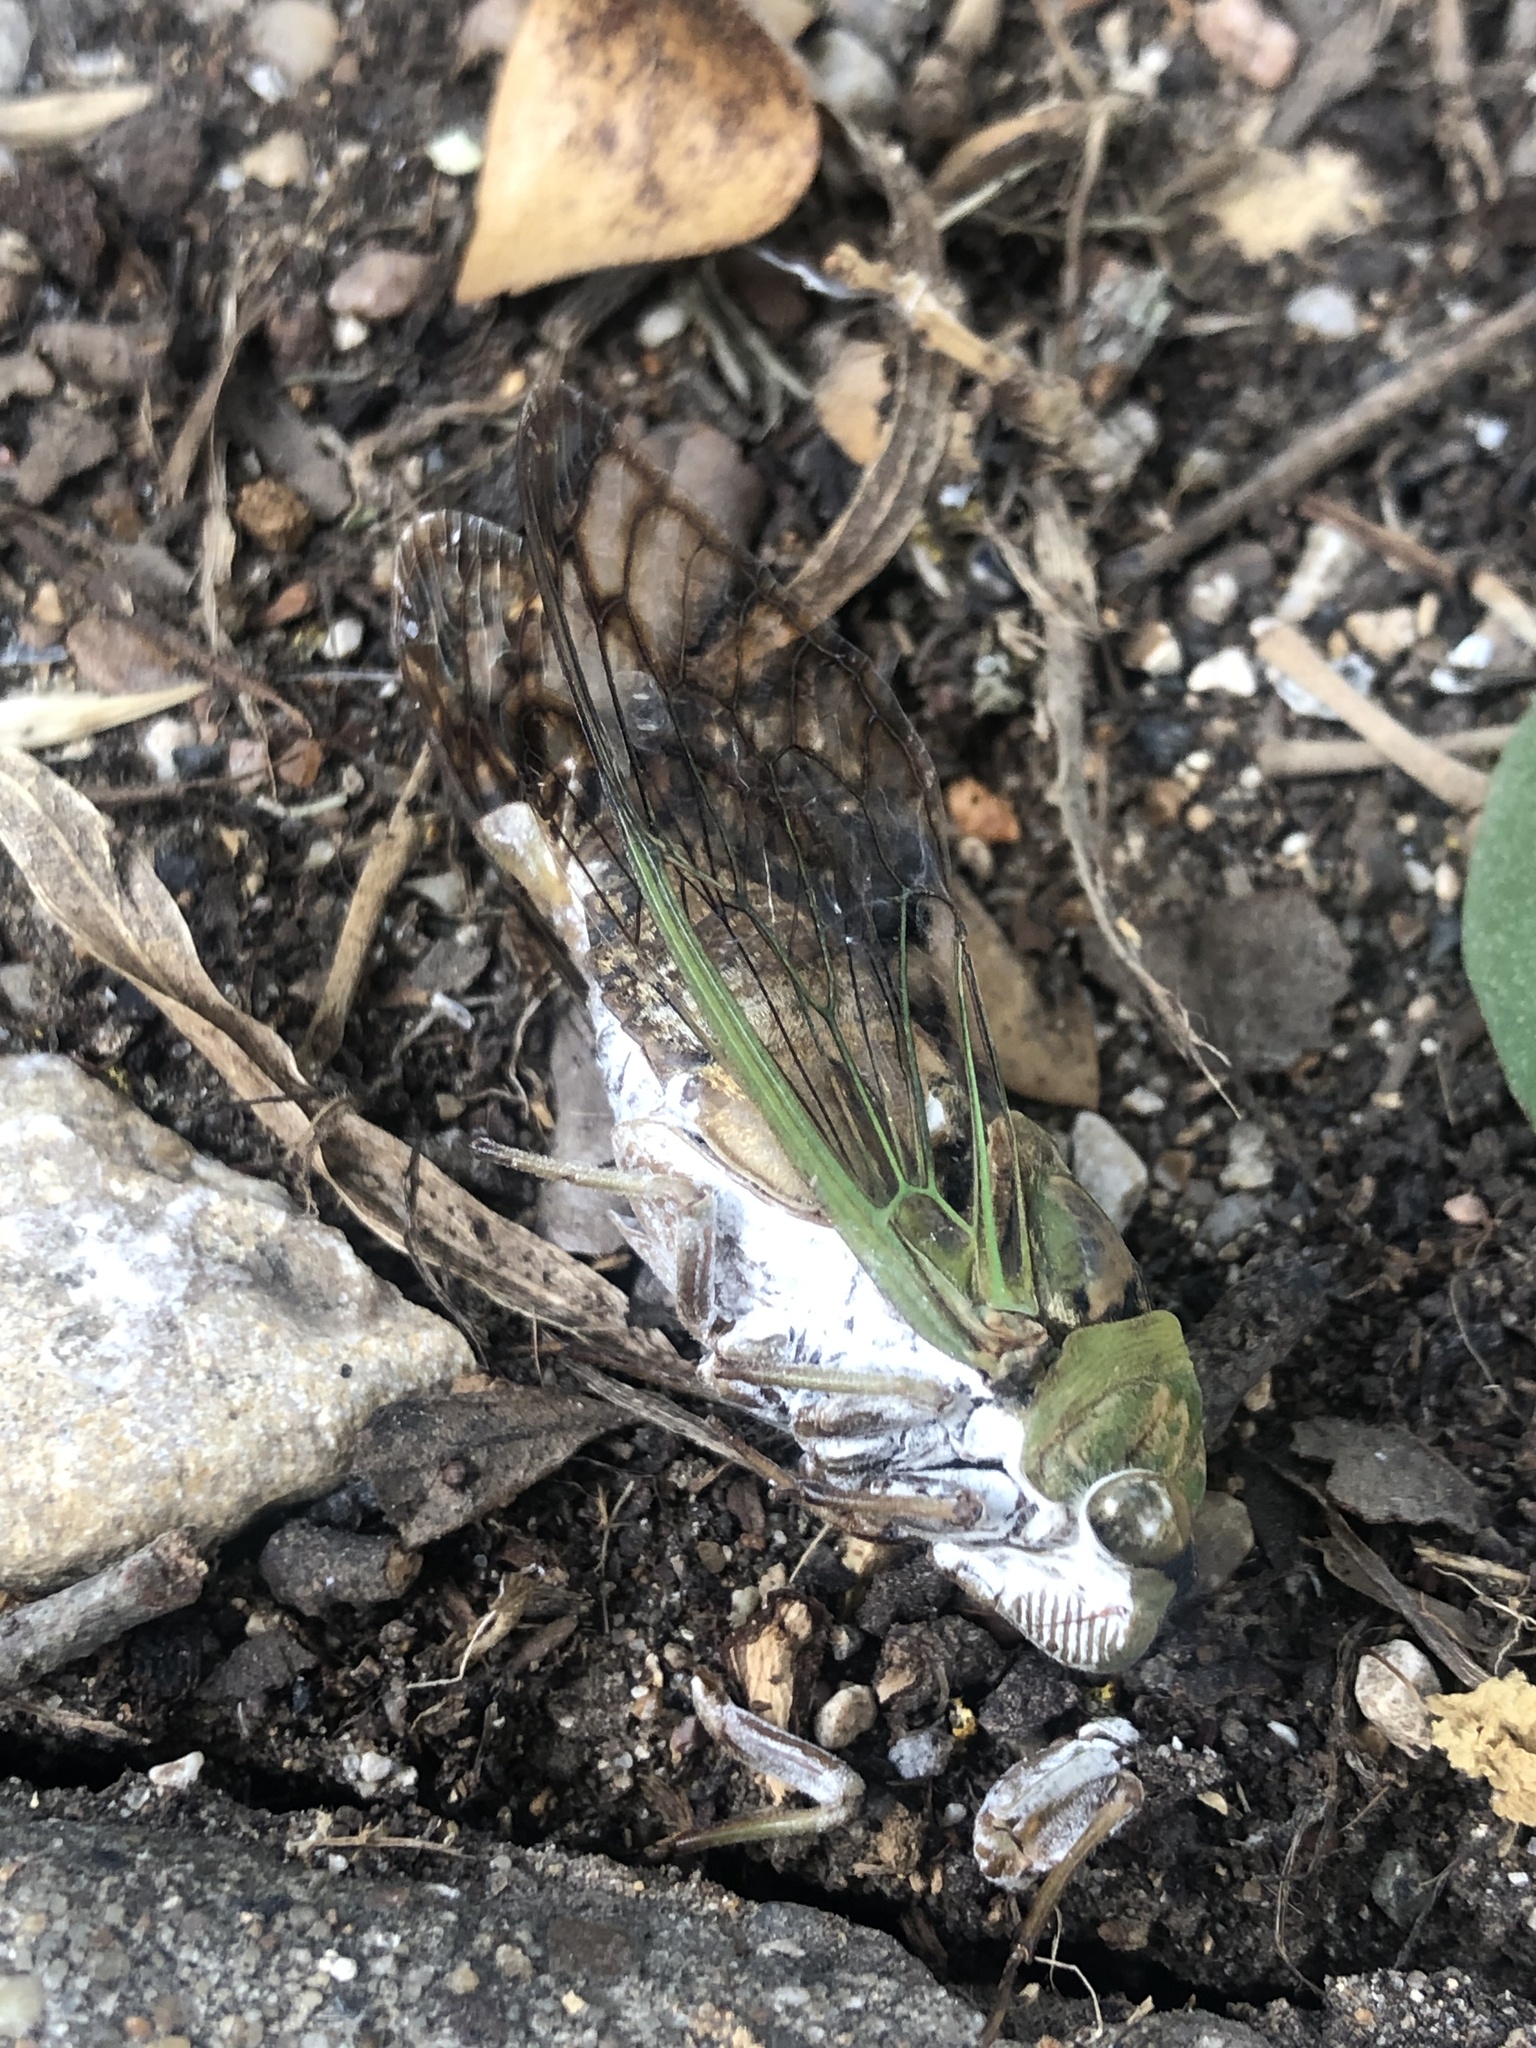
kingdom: Animalia
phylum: Arthropoda
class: Insecta
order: Hemiptera
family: Cicadidae
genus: Neotibicen
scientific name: Neotibicen superbus
